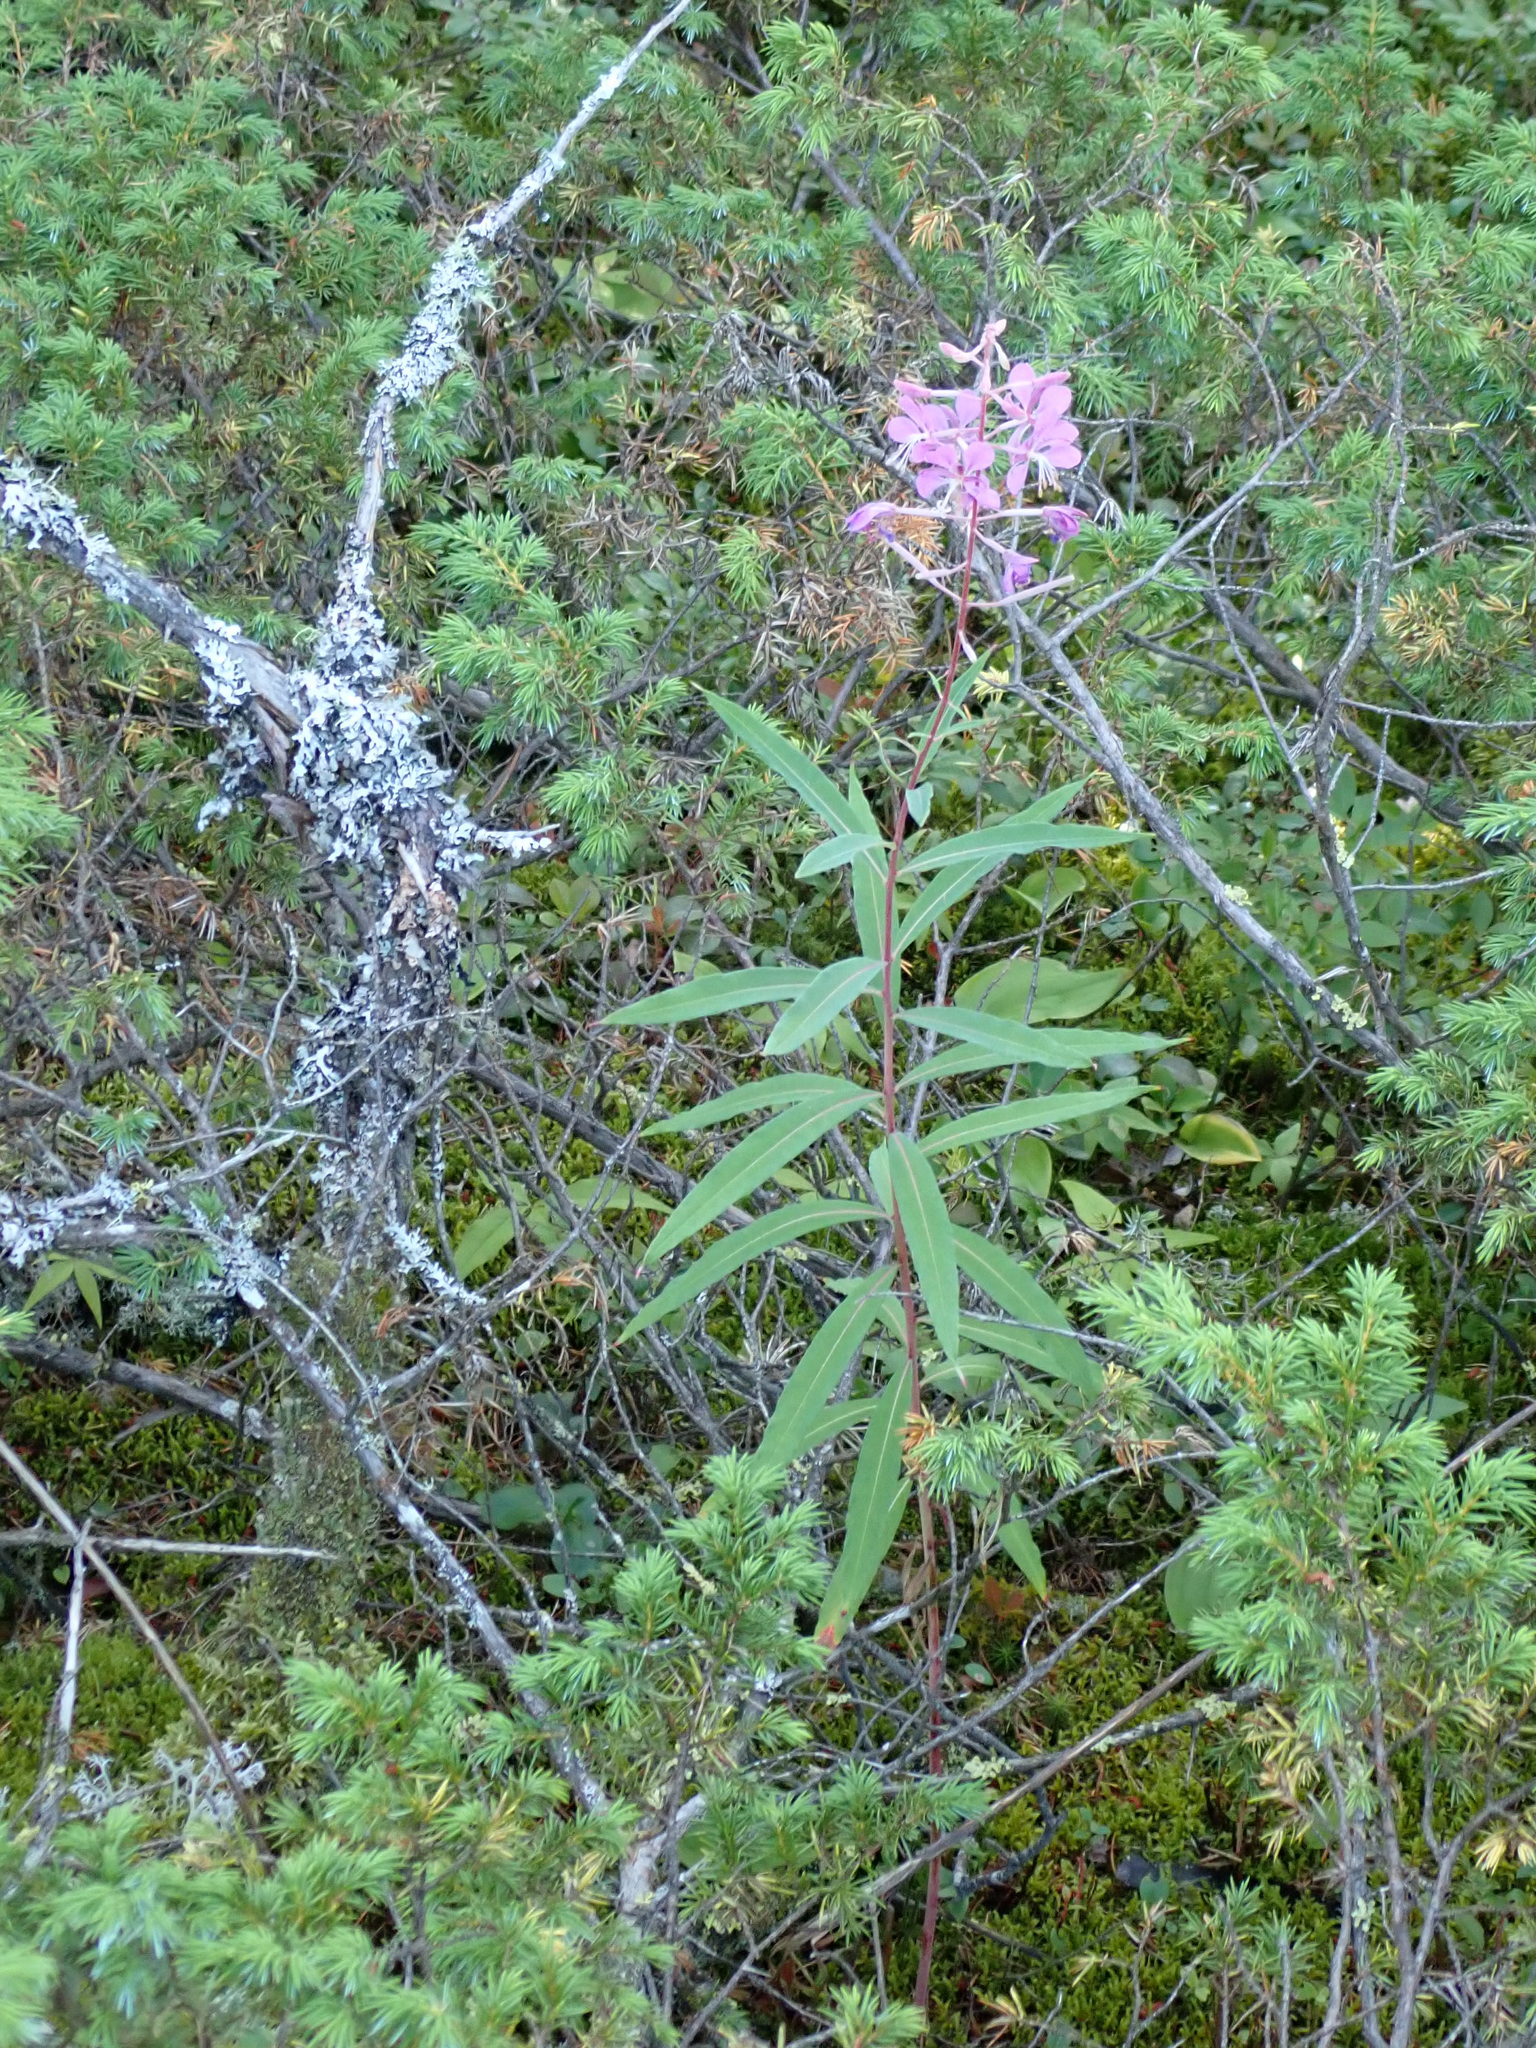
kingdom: Plantae
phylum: Tracheophyta
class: Magnoliopsida
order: Myrtales
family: Onagraceae
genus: Chamaenerion
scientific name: Chamaenerion angustifolium
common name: Fireweed
